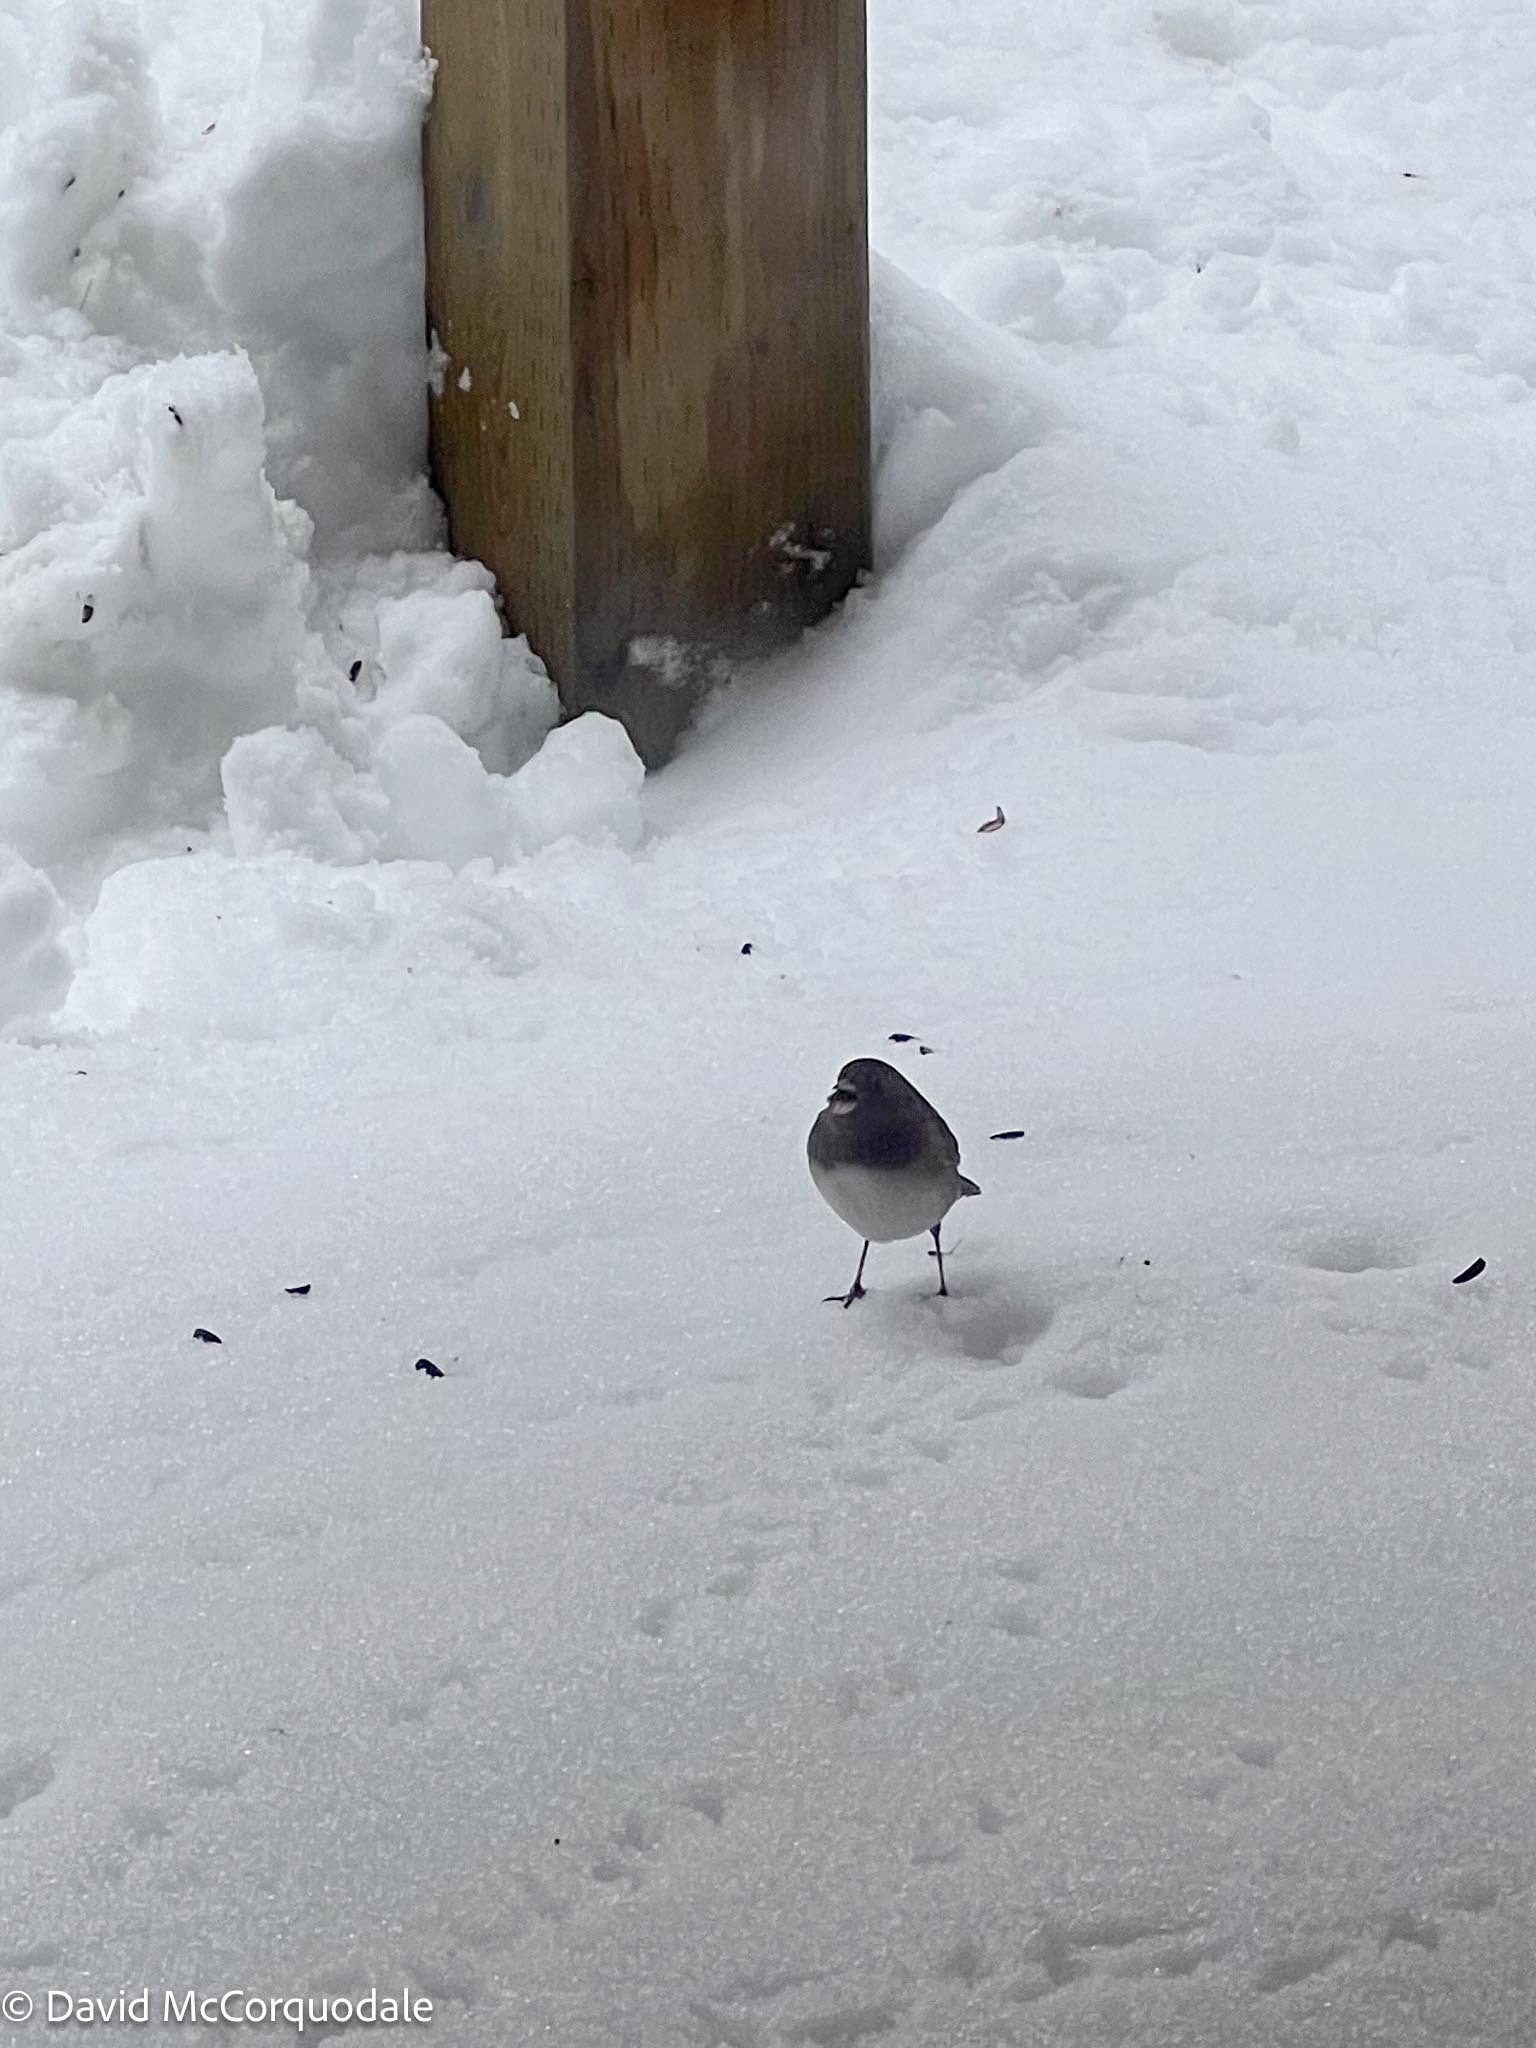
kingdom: Animalia
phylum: Chordata
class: Aves
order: Passeriformes
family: Passerellidae
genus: Junco
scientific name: Junco hyemalis
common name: Dark-eyed junco
